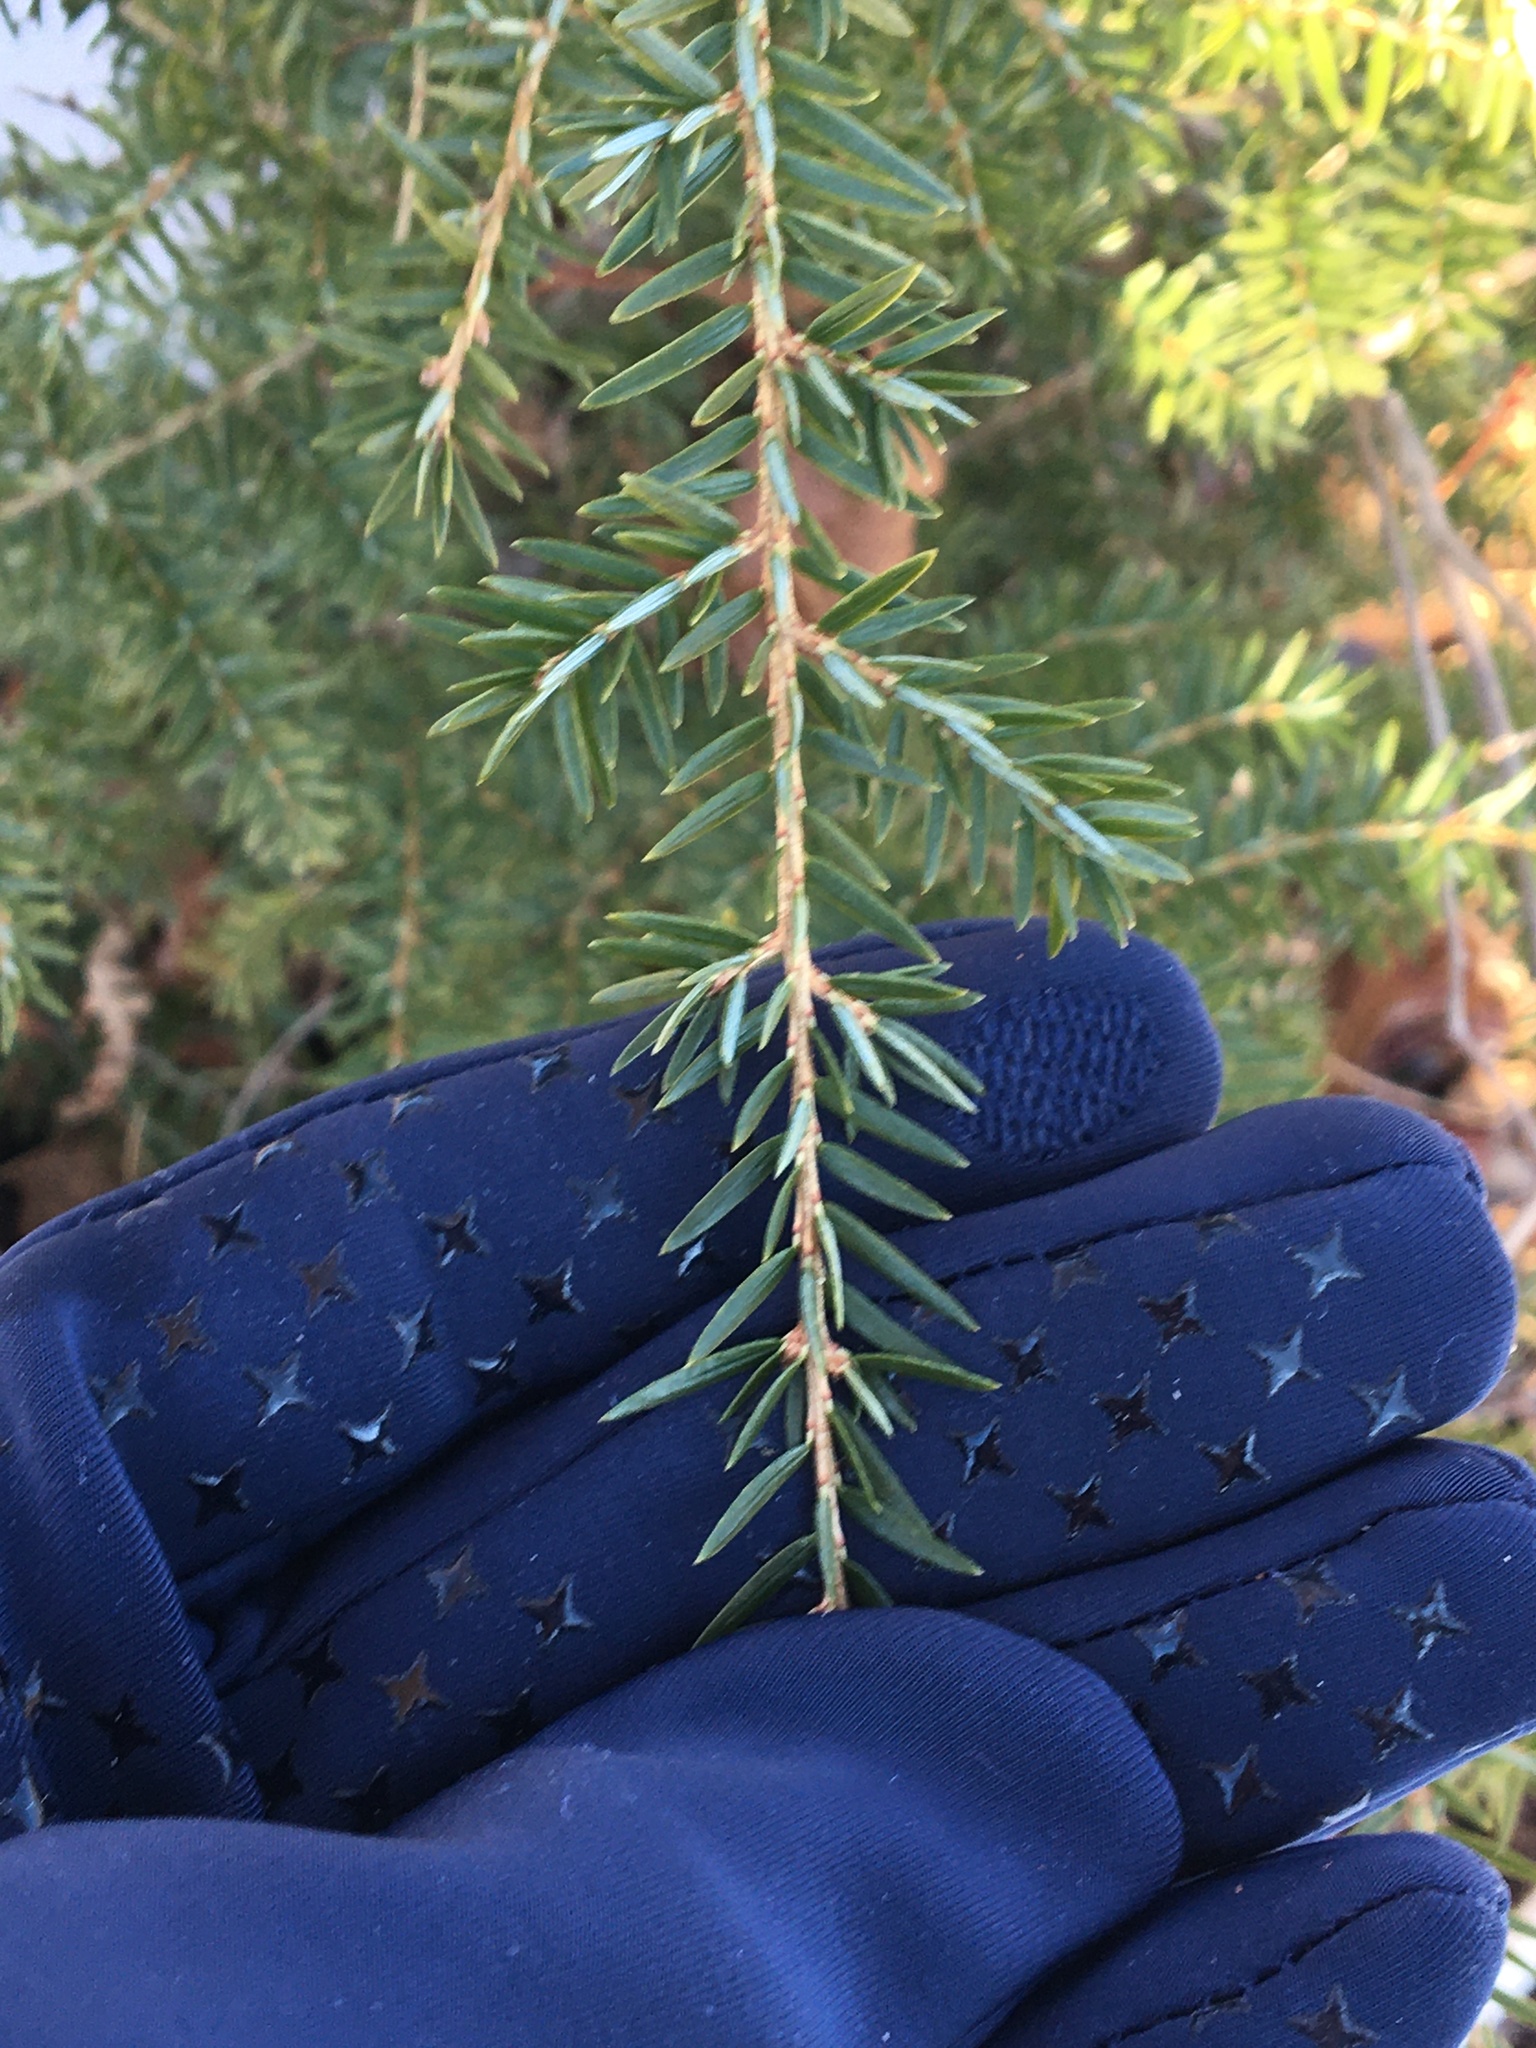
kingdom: Plantae
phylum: Tracheophyta
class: Pinopsida
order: Pinales
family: Pinaceae
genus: Tsuga
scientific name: Tsuga canadensis
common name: Eastern hemlock
